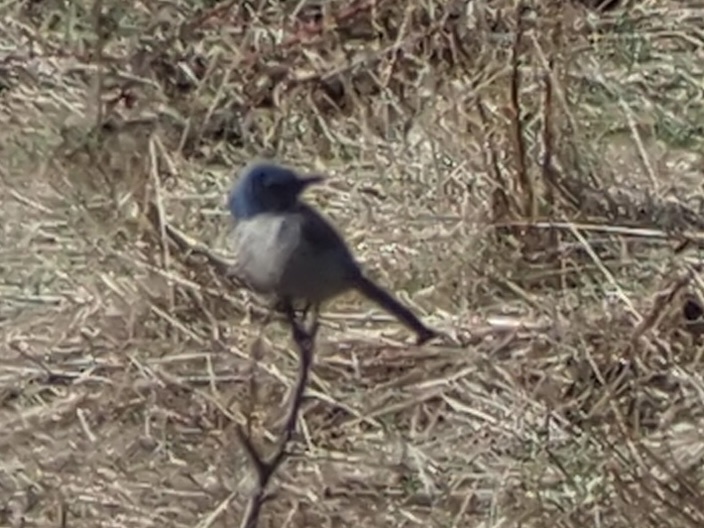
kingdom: Animalia
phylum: Chordata
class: Aves
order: Passeriformes
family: Corvidae
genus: Aphelocoma
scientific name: Aphelocoma californica
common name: California scrub-jay
